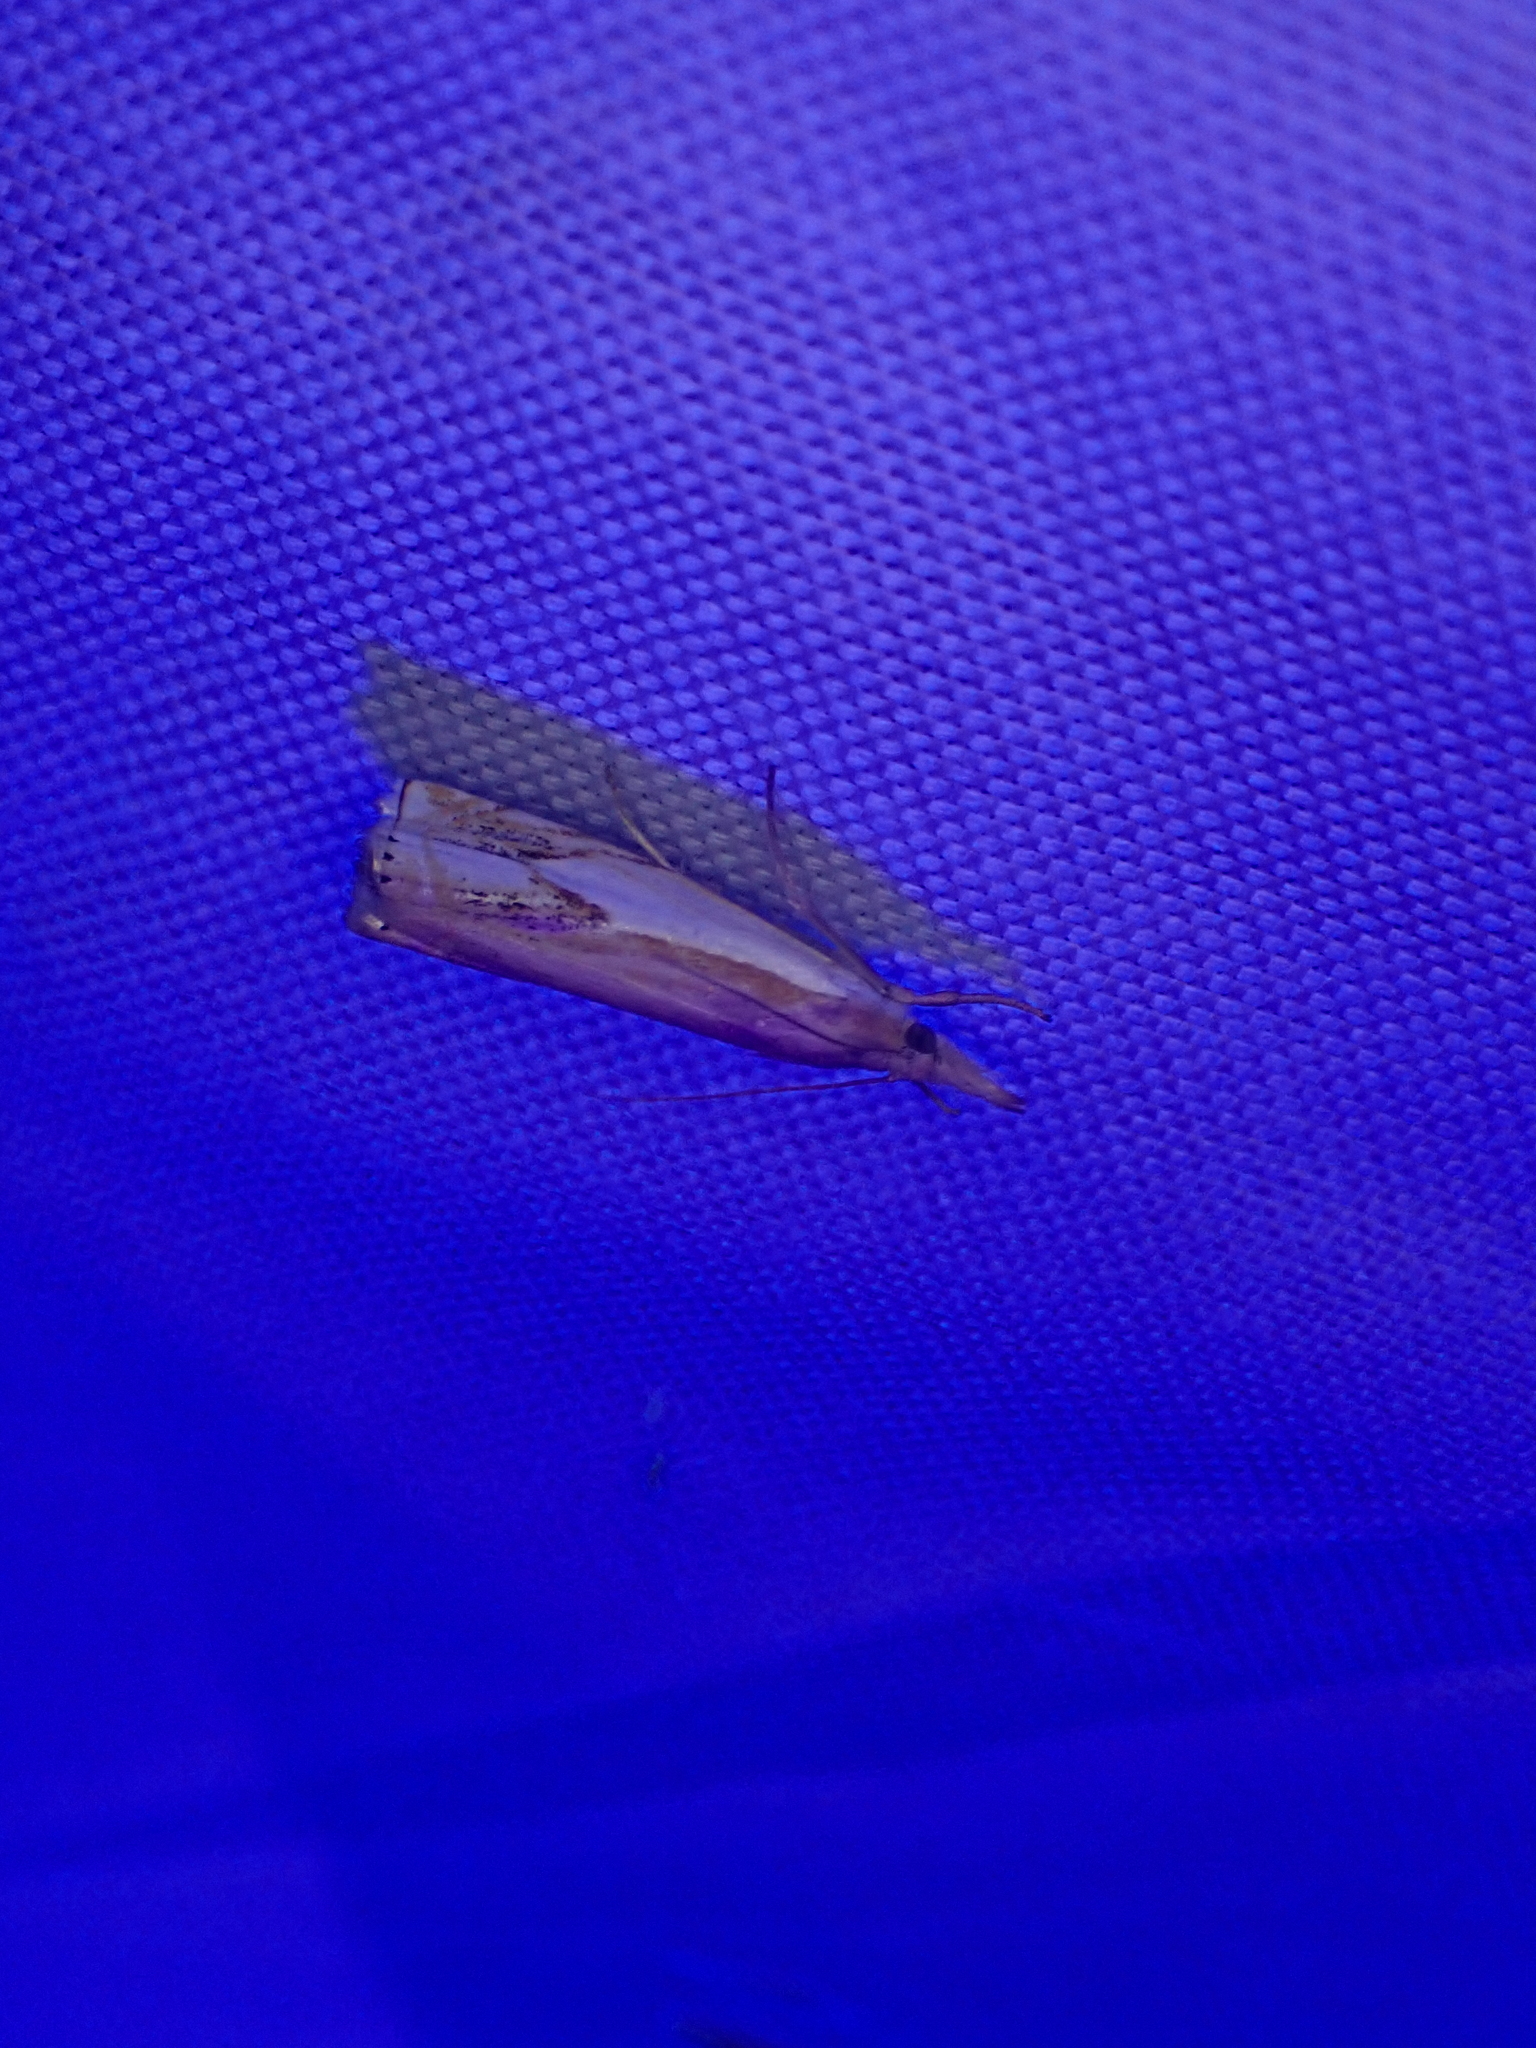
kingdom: Animalia
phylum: Arthropoda
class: Insecta
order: Lepidoptera
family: Crambidae
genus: Crambus
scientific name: Crambus agitatellus
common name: Double-banded grass-veneer
